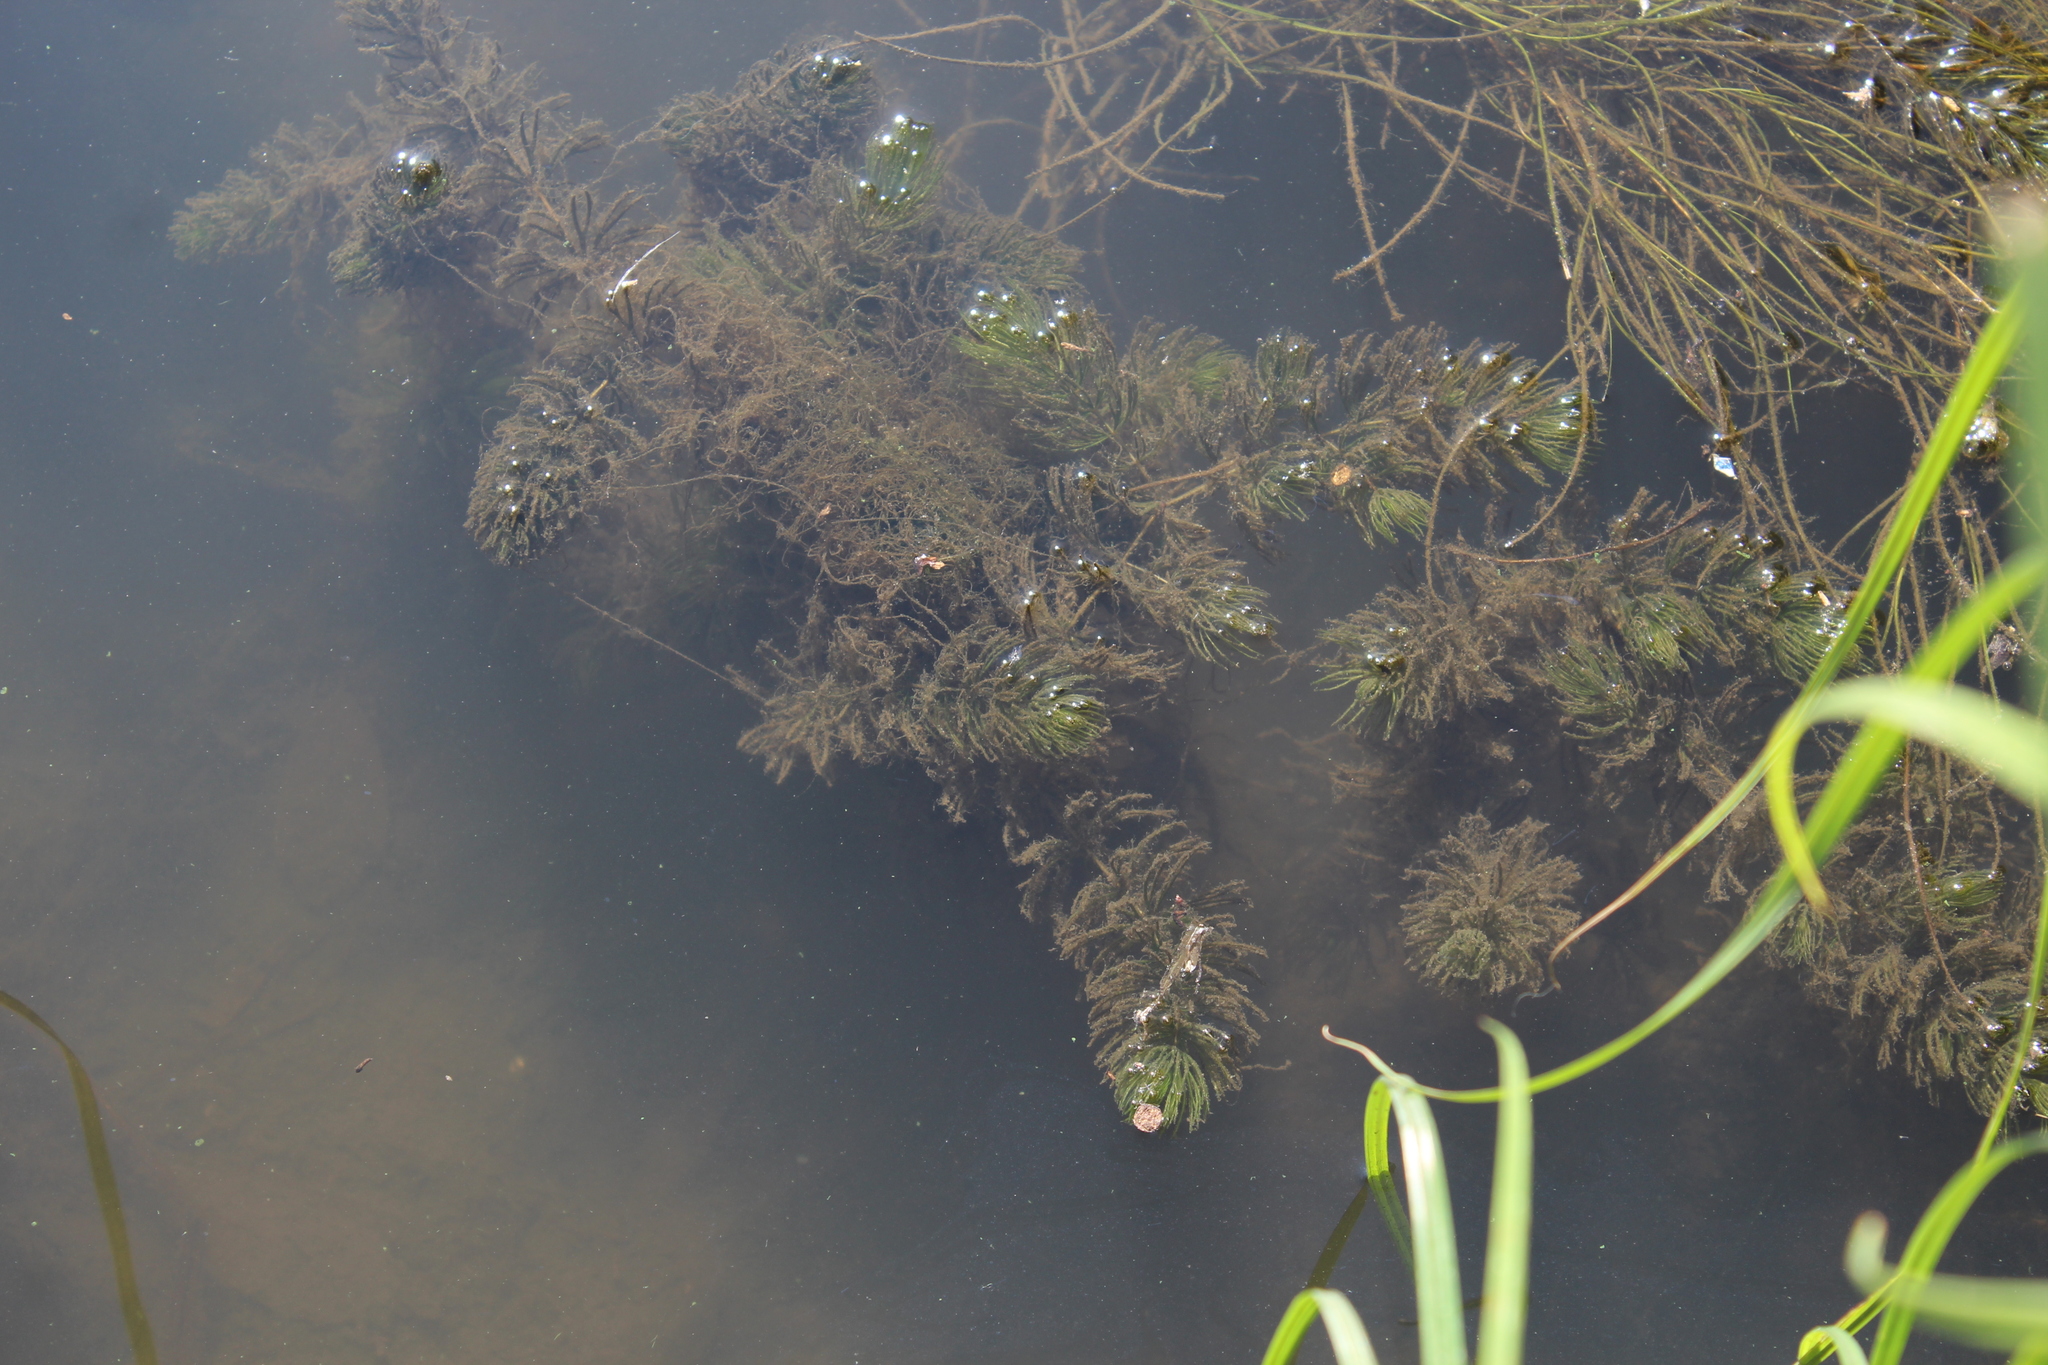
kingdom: Plantae
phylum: Tracheophyta
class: Magnoliopsida
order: Ceratophyllales
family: Ceratophyllaceae
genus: Ceratophyllum
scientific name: Ceratophyllum demersum
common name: Rigid hornwort
